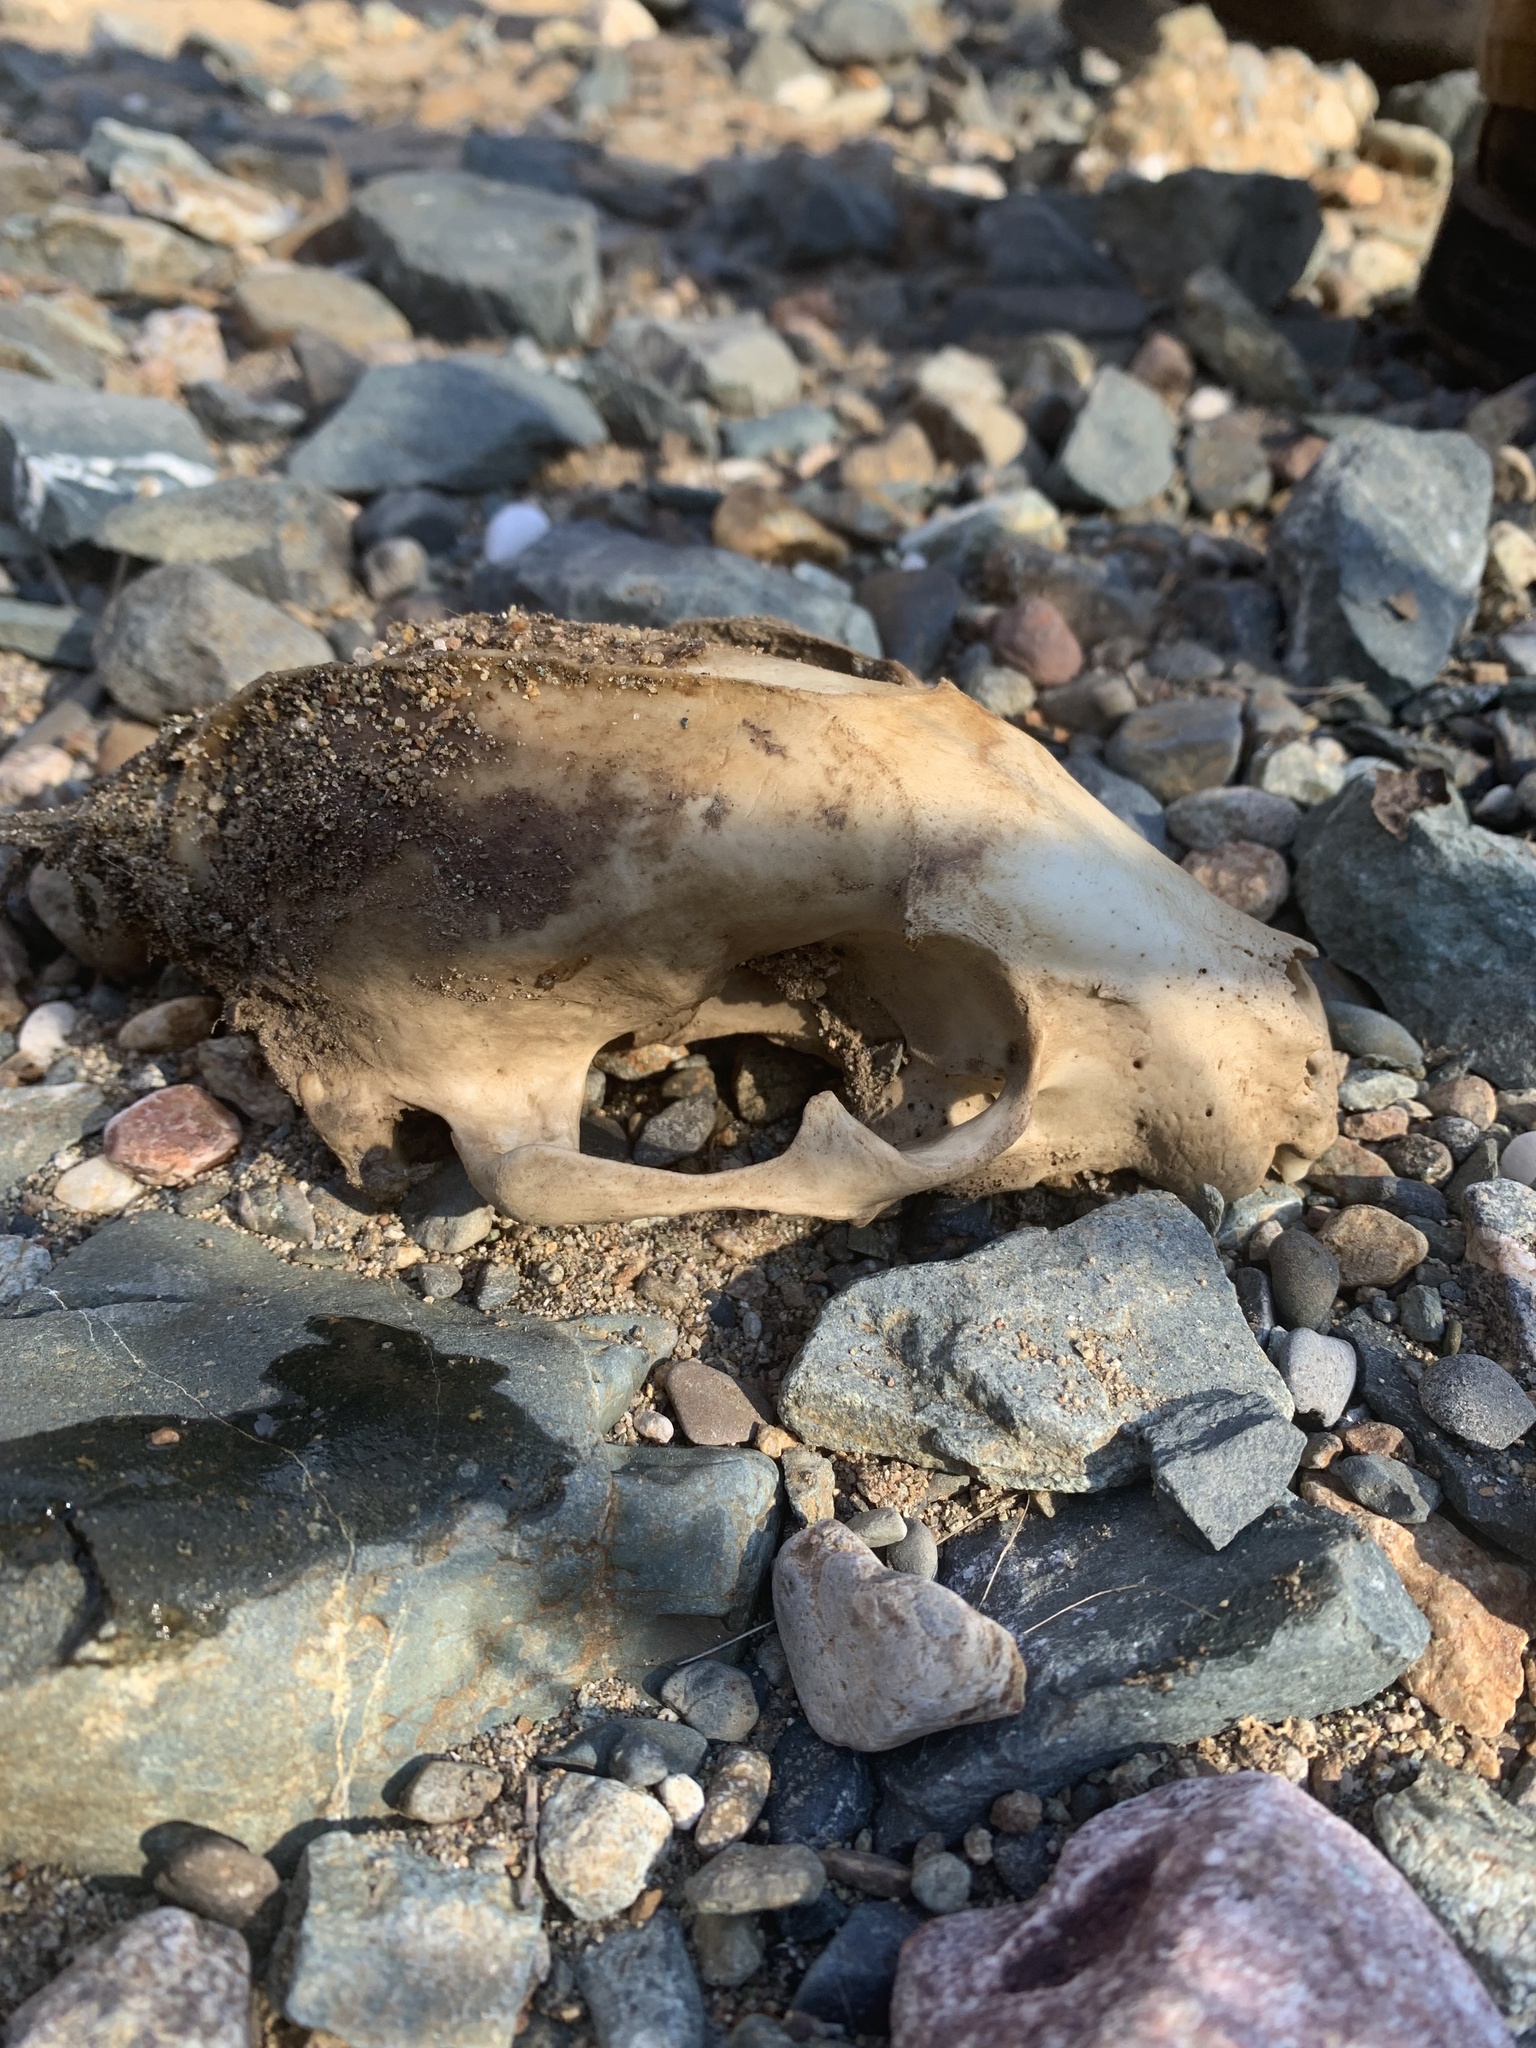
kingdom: Animalia
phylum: Chordata
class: Mammalia
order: Carnivora
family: Procyonidae
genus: Procyon
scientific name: Procyon lotor
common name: Raccoon
